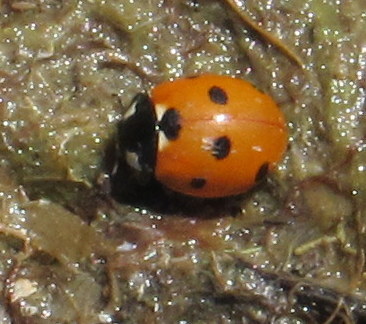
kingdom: Animalia
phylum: Arthropoda
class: Insecta
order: Coleoptera
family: Coccinellidae
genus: Coccinella
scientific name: Coccinella septempunctata
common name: Sevenspotted lady beetle
